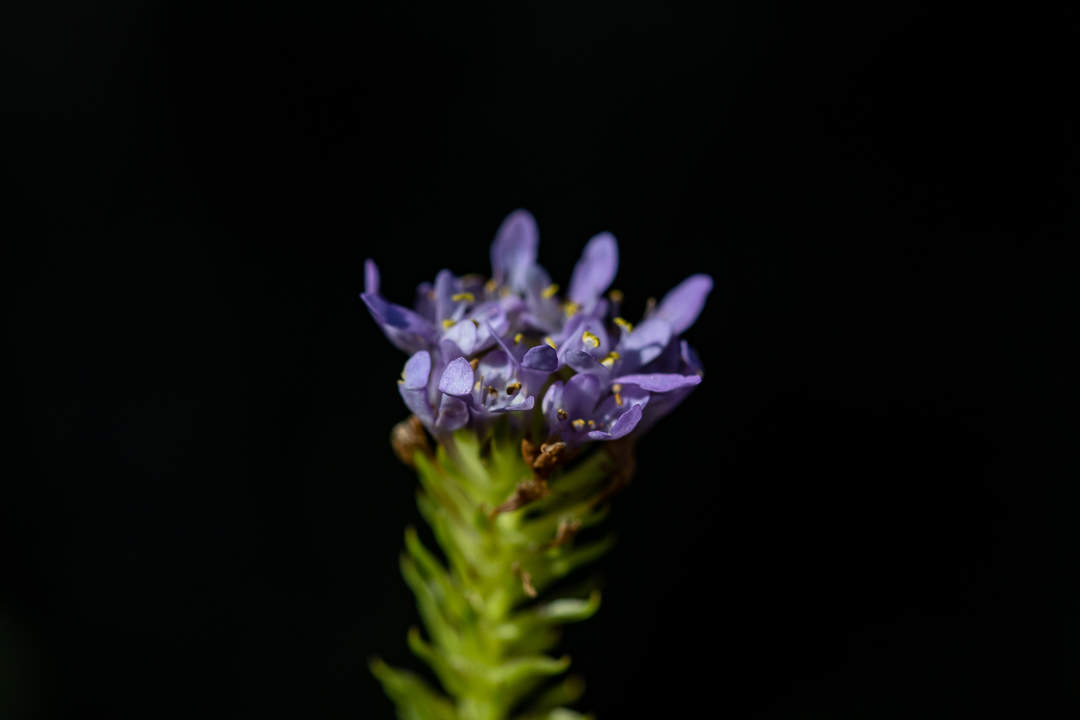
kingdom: Plantae
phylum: Tracheophyta
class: Magnoliopsida
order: Lamiales
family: Scrophulariaceae
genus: Pseudoselago
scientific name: Pseudoselago spuria
